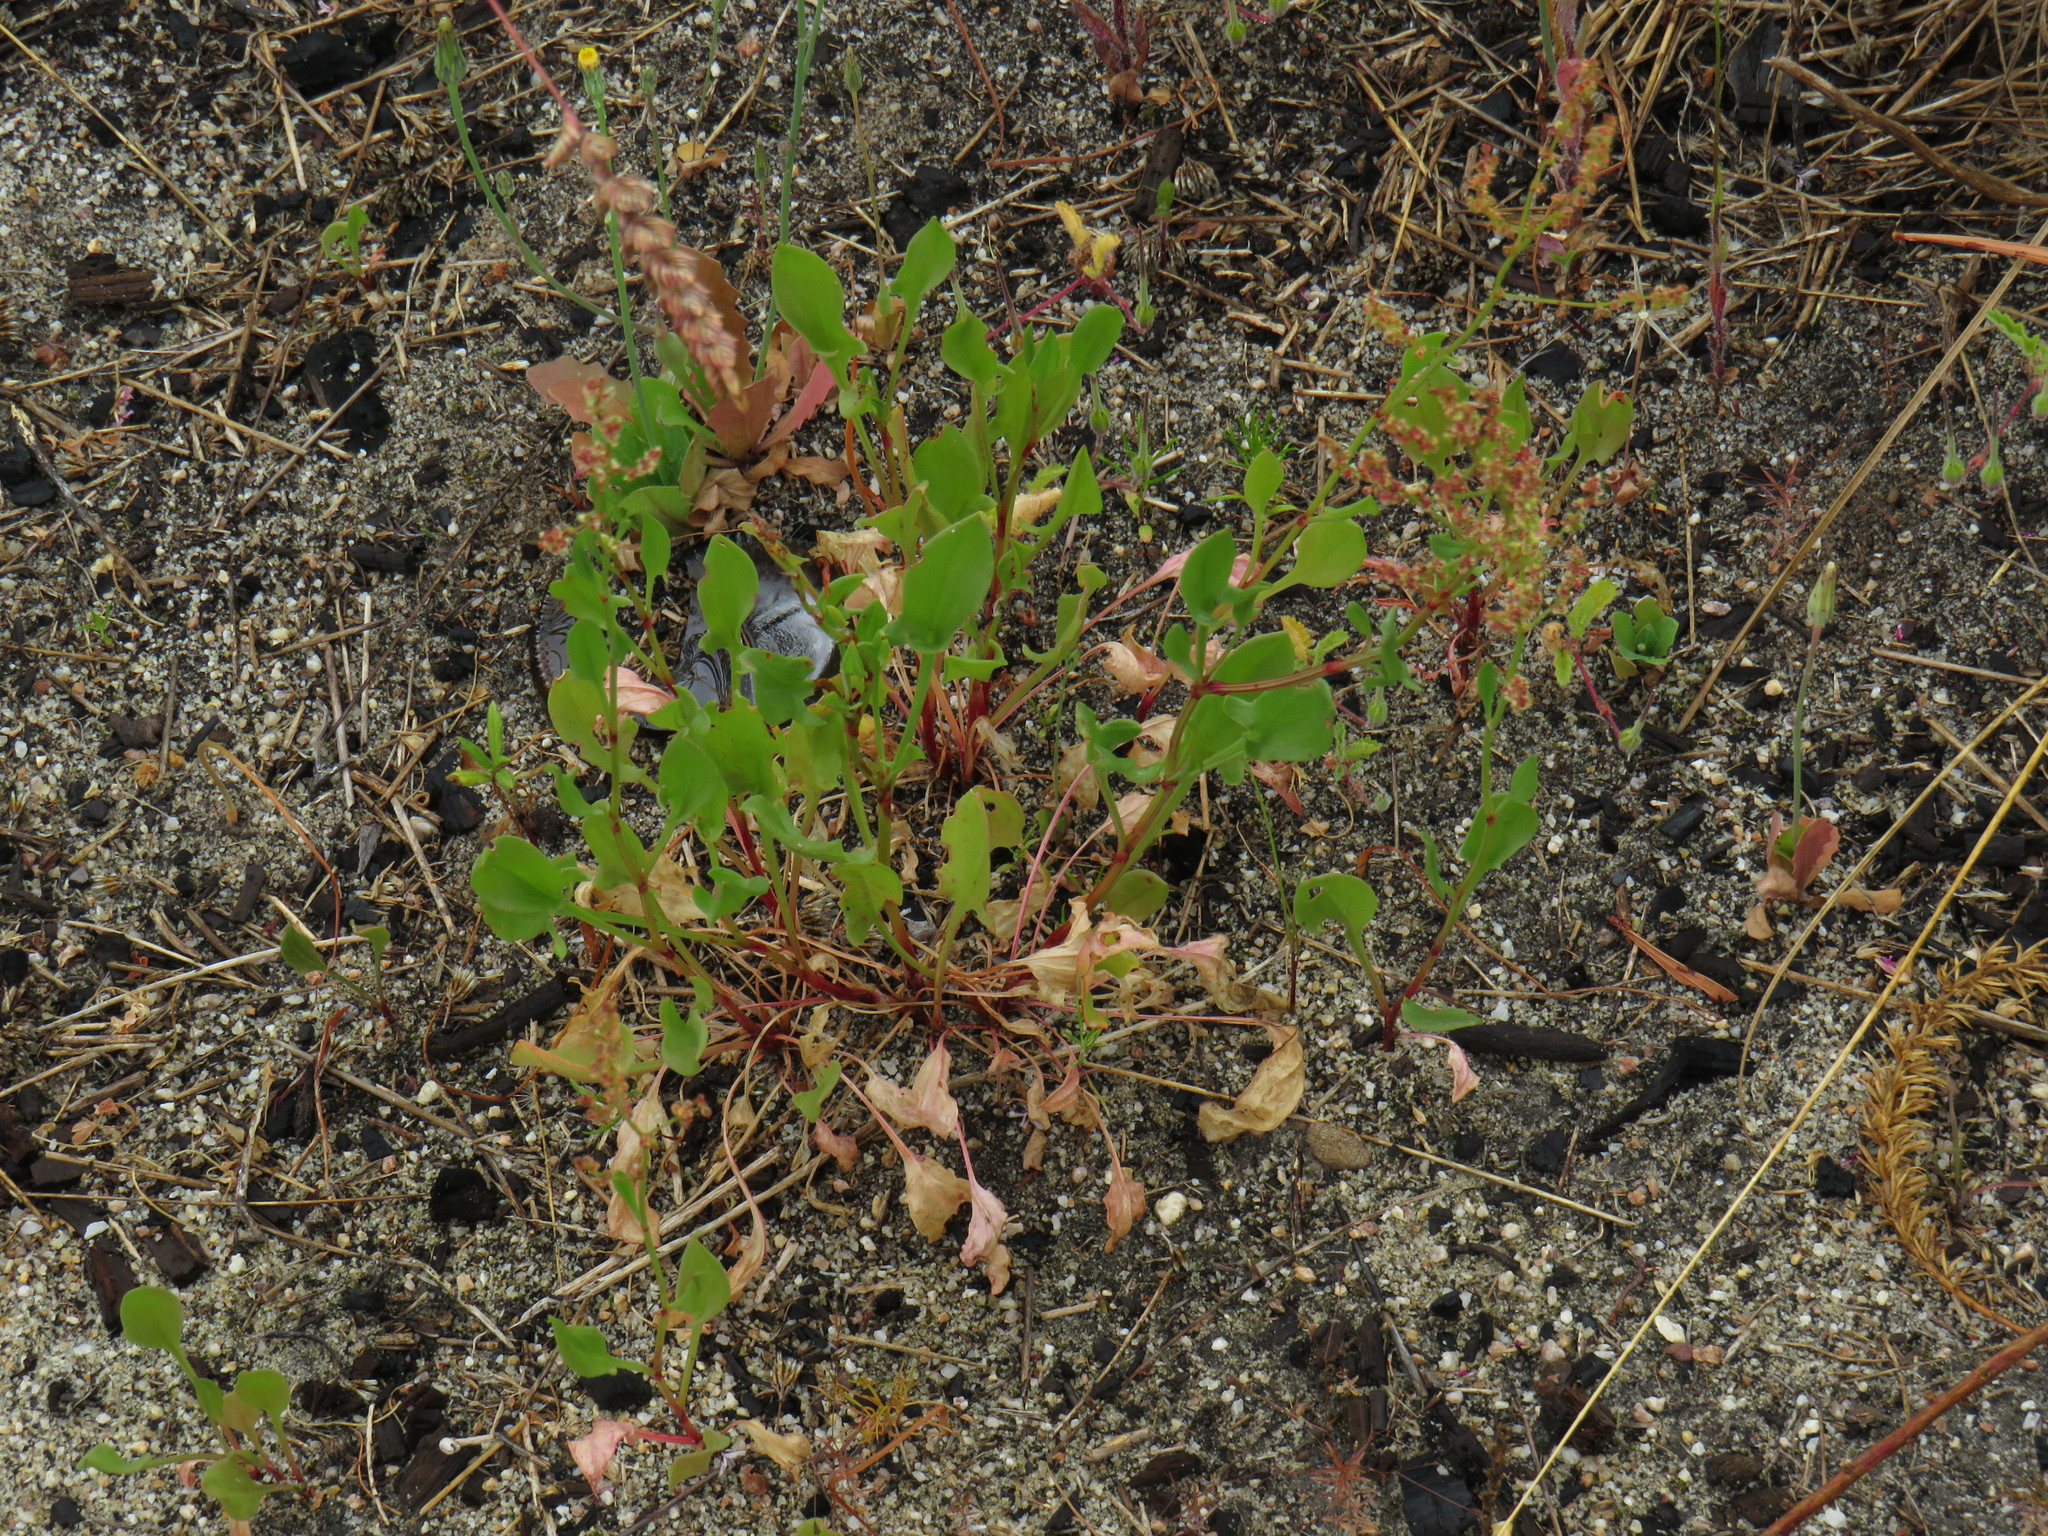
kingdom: Plantae
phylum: Tracheophyta
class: Magnoliopsida
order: Caryophyllales
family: Polygonaceae
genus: Rumex
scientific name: Rumex acetosella
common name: Common sheep sorrel
